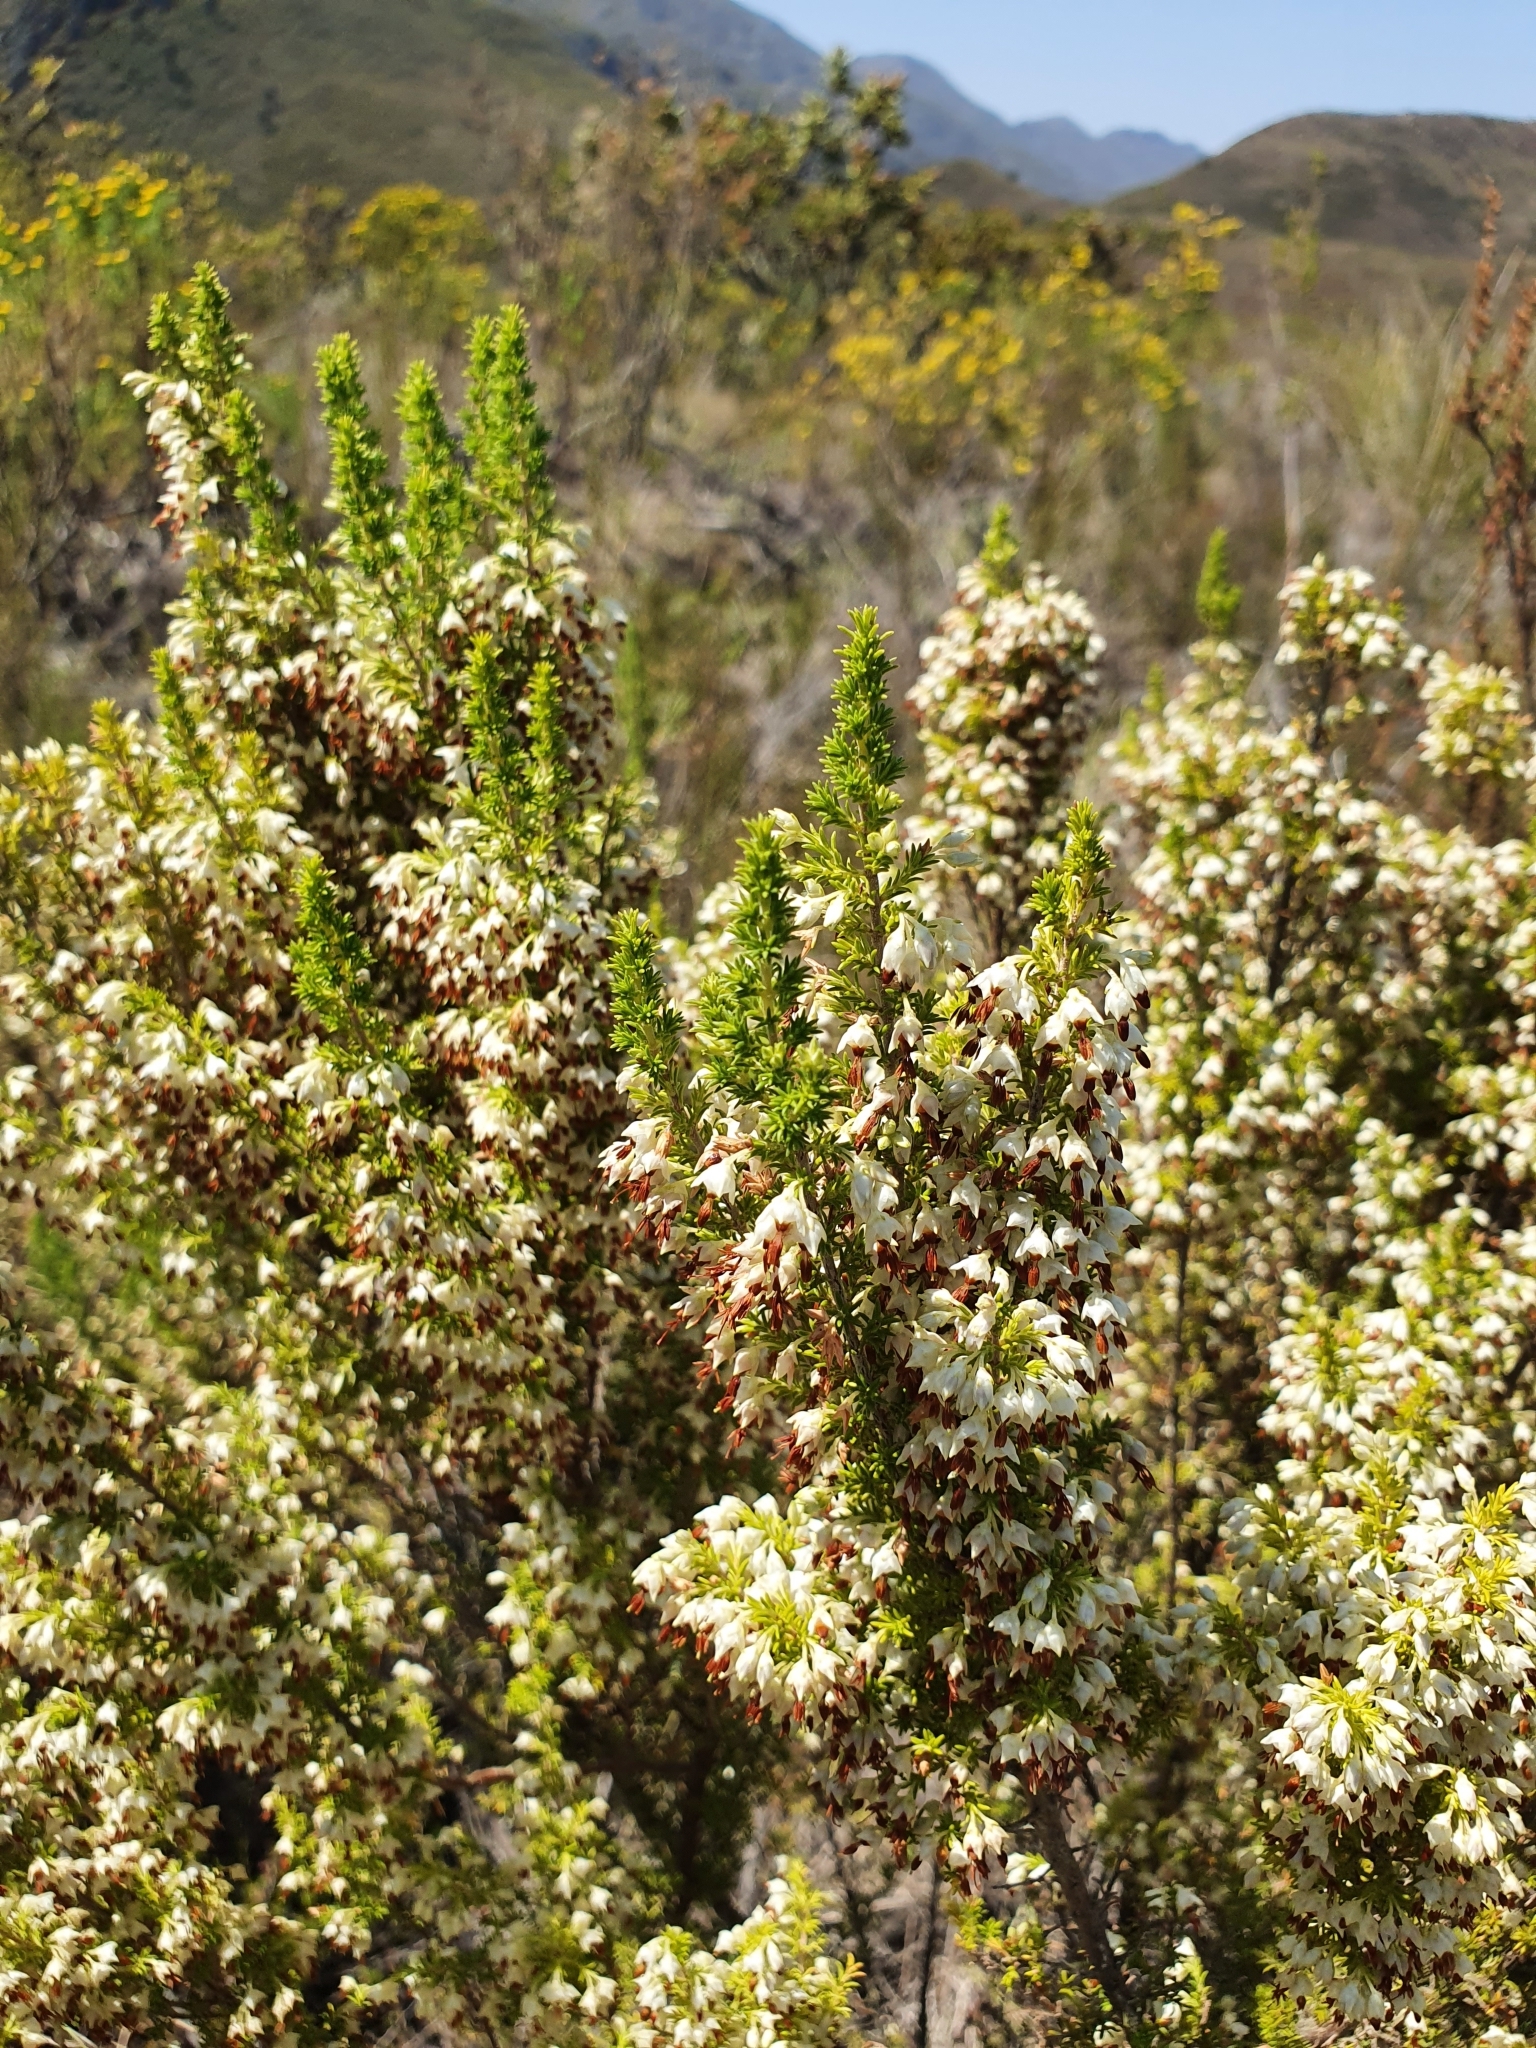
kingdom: Plantae
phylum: Tracheophyta
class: Magnoliopsida
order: Ericales
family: Ericaceae
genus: Erica
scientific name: Erica penicilliformis
